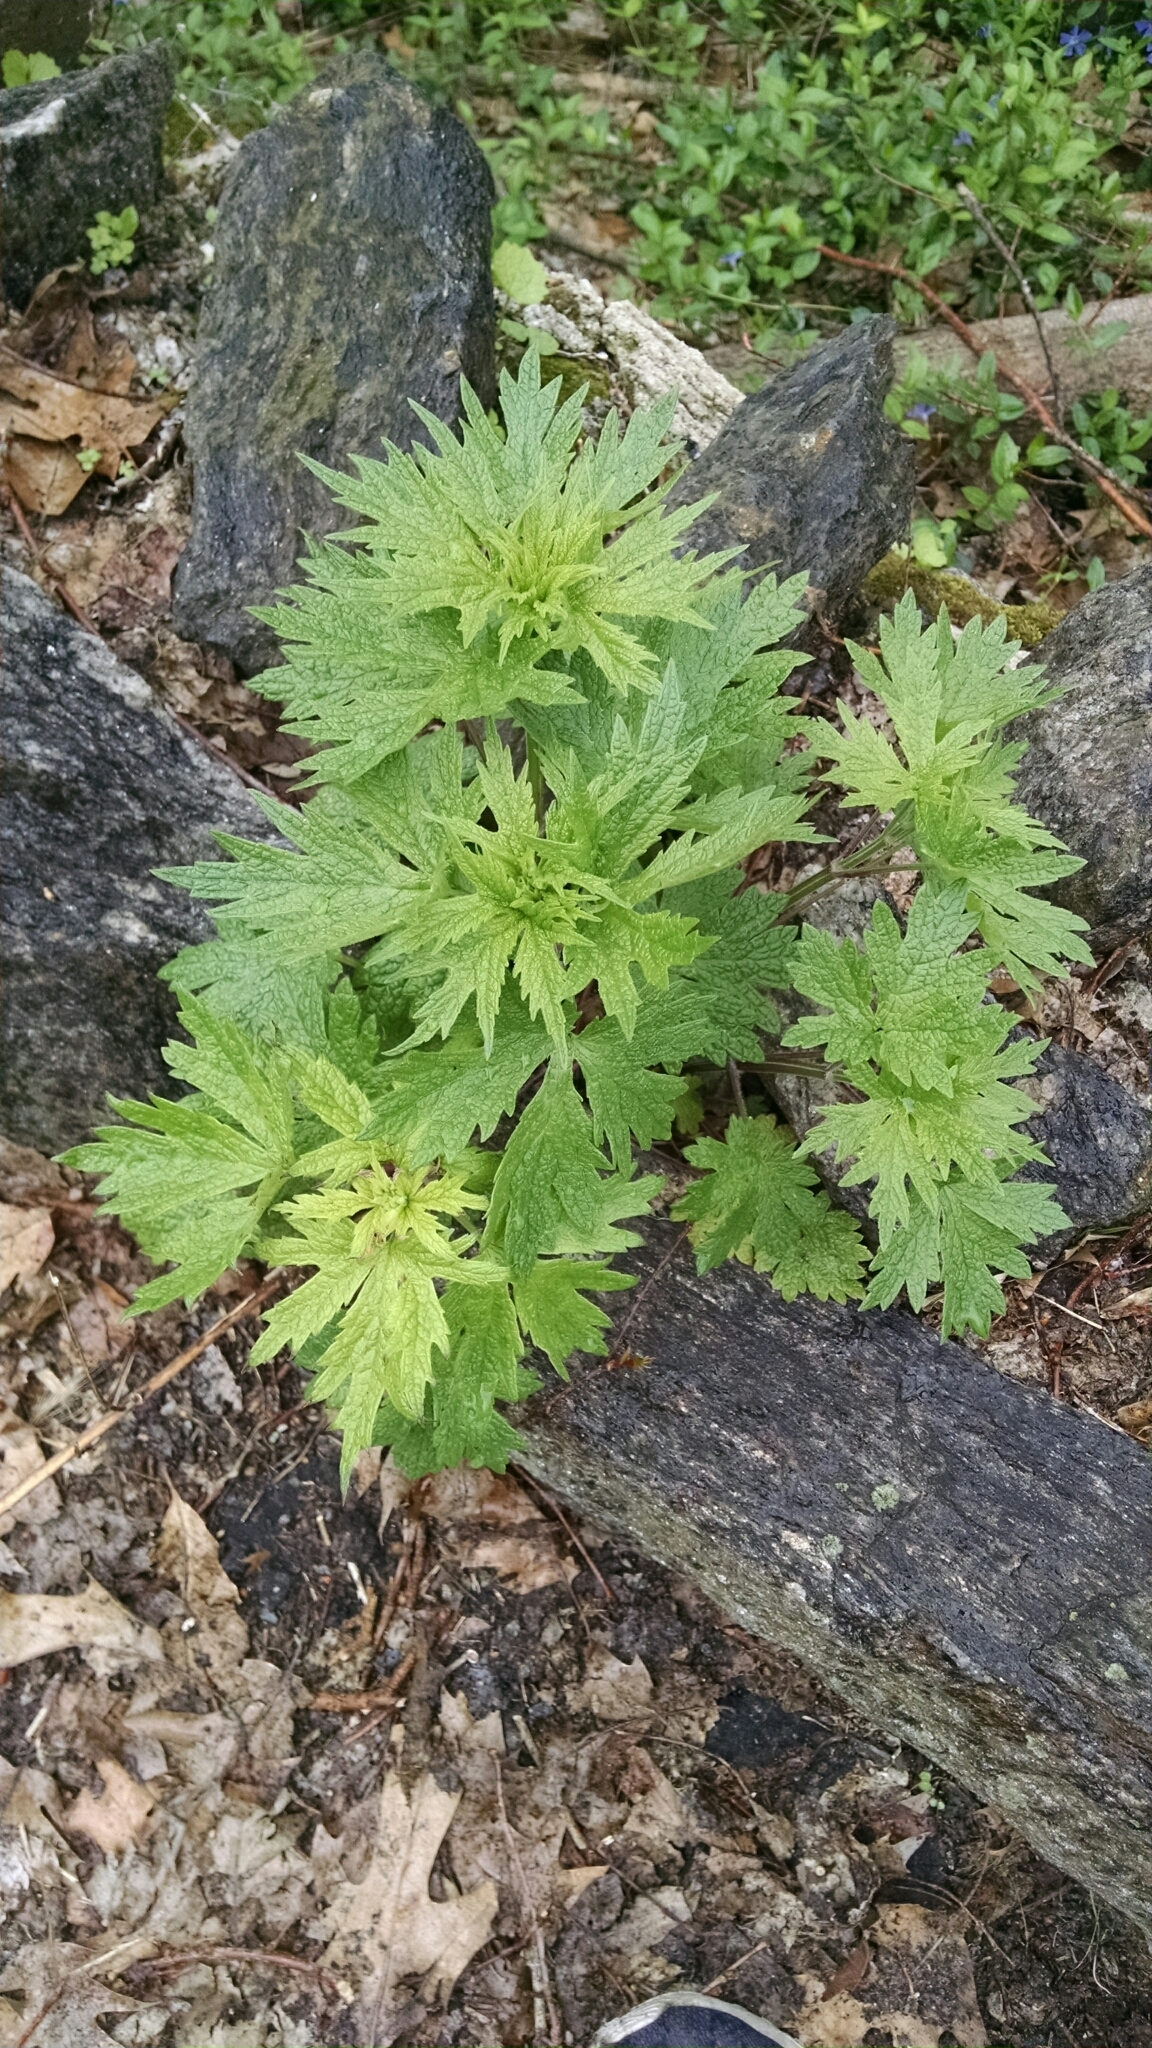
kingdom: Plantae
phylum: Tracheophyta
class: Magnoliopsida
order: Asterales
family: Asteraceae
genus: Artemisia
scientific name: Artemisia vulgaris
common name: Mugwort
